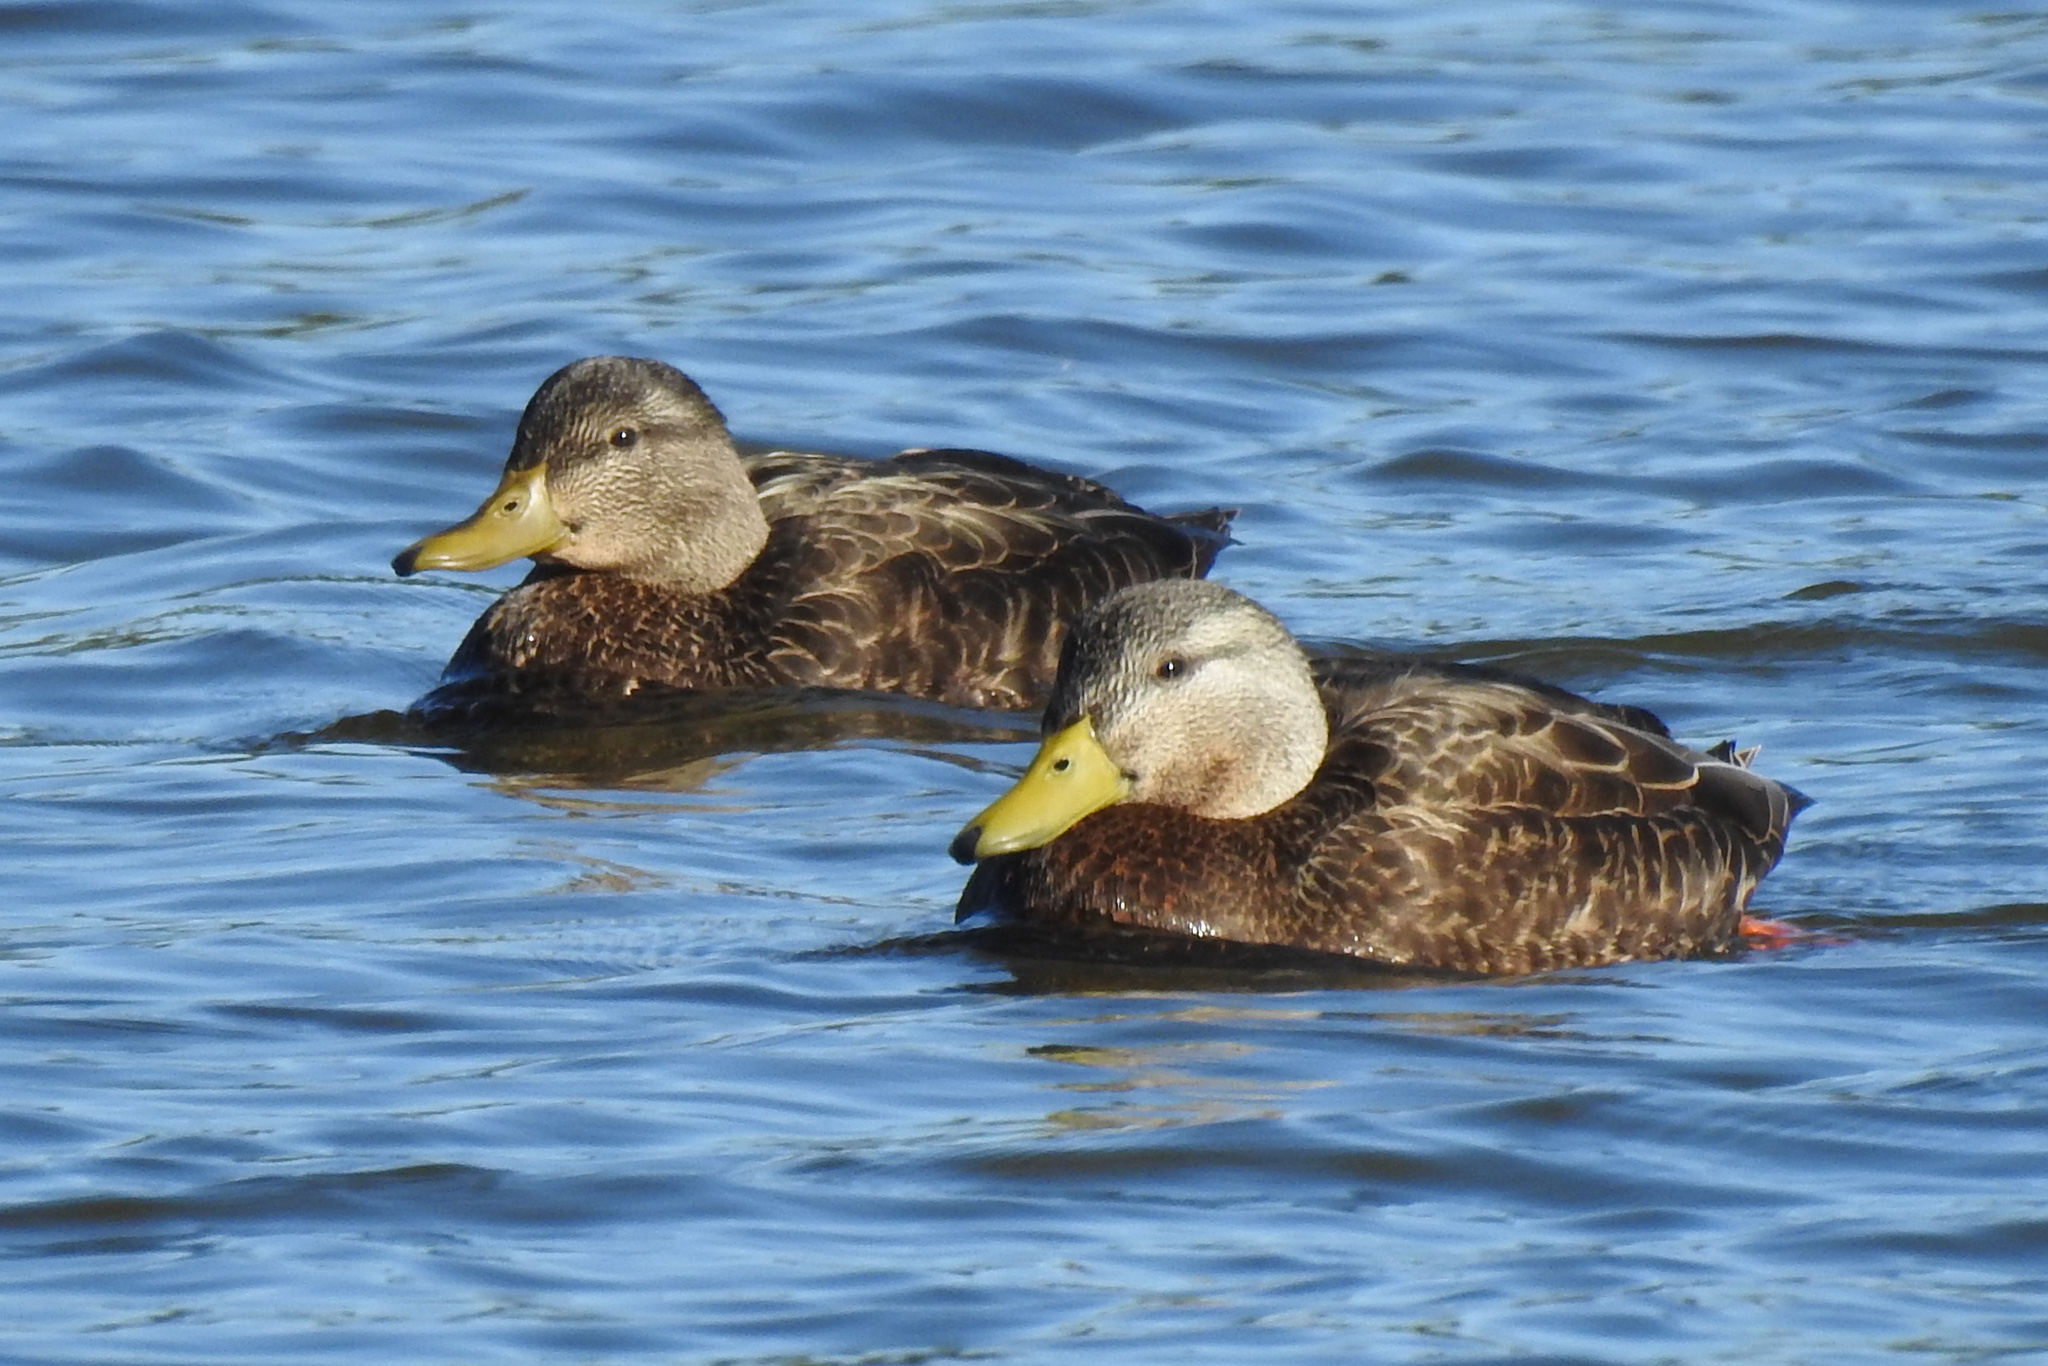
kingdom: Animalia
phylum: Chordata
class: Aves
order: Anseriformes
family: Anatidae
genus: Anas
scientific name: Anas rubripes
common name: American black duck
